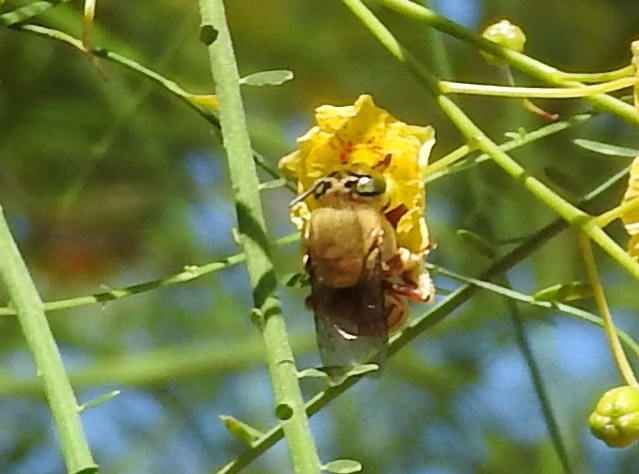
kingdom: Animalia
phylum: Arthropoda
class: Insecta
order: Hymenoptera
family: Apidae
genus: Centris
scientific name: Centris aethyctera
